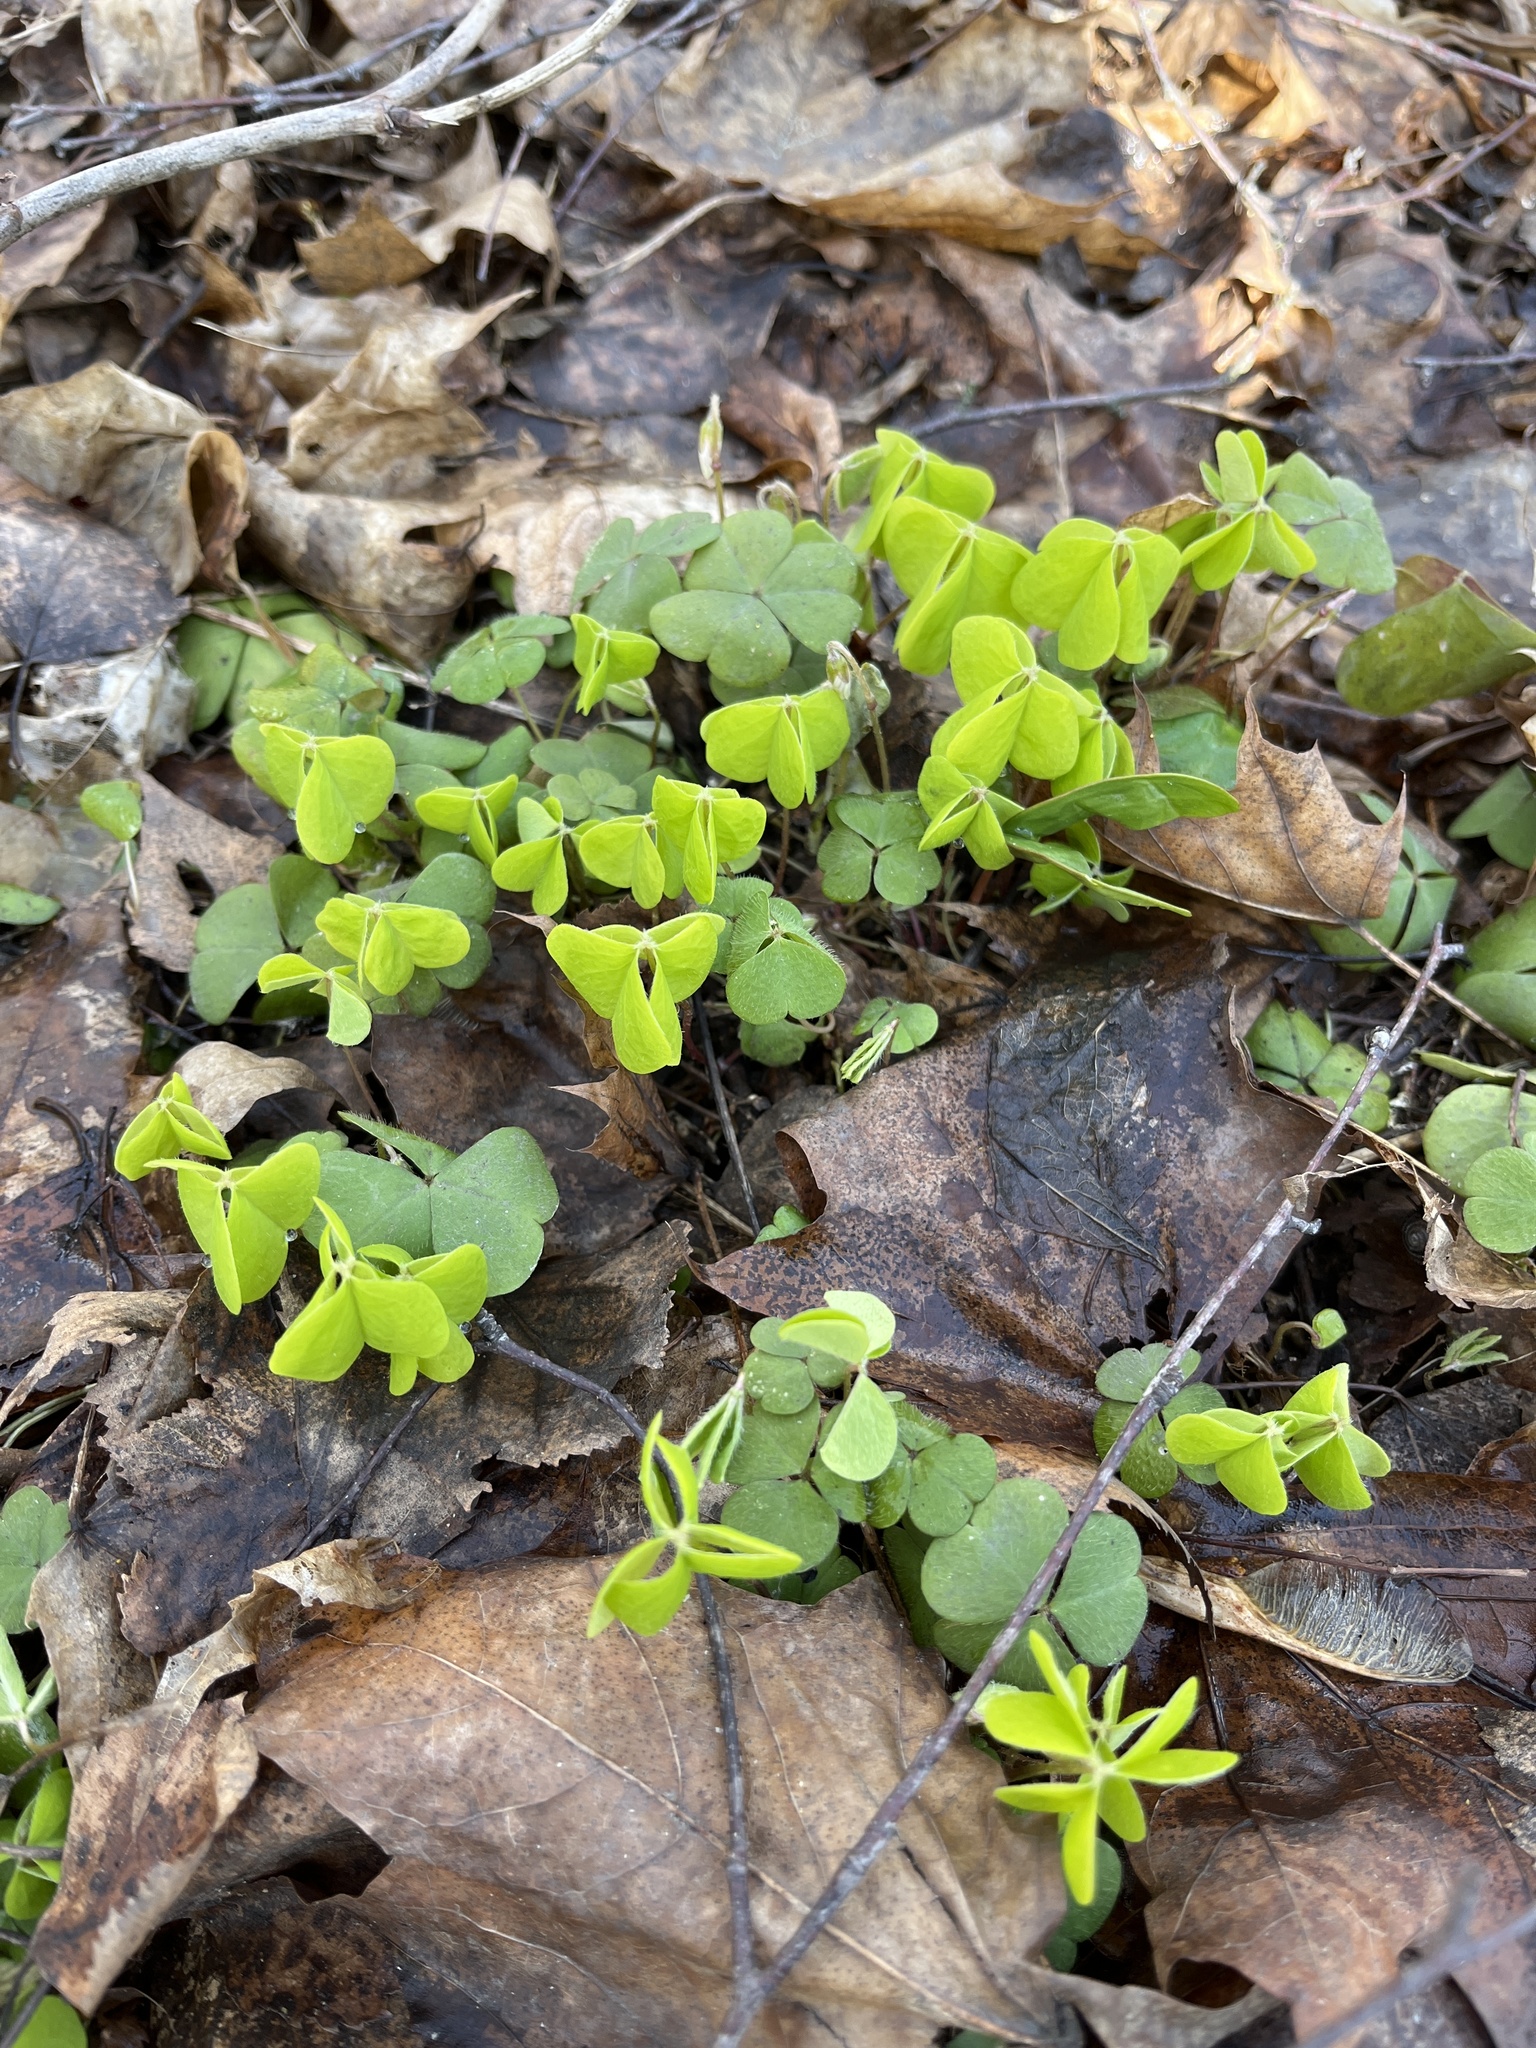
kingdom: Plantae
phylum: Tracheophyta
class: Magnoliopsida
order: Oxalidales
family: Oxalidaceae
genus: Oxalis
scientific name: Oxalis acetosella
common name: Wood-sorrel
